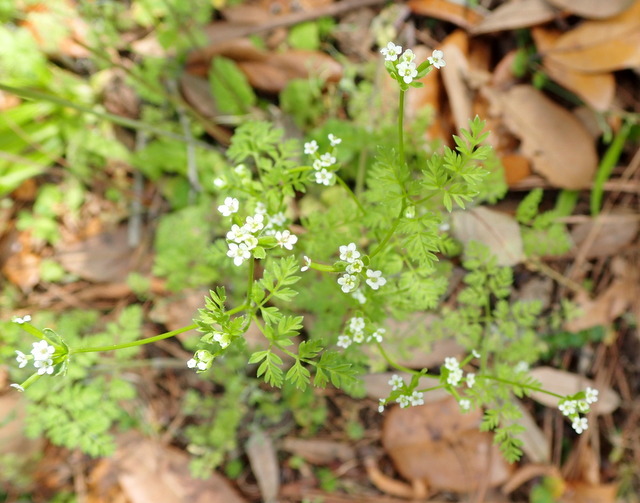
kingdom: Plantae
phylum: Tracheophyta
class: Magnoliopsida
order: Apiales
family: Apiaceae
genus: Chaerophyllum
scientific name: Chaerophyllum tainturieri
